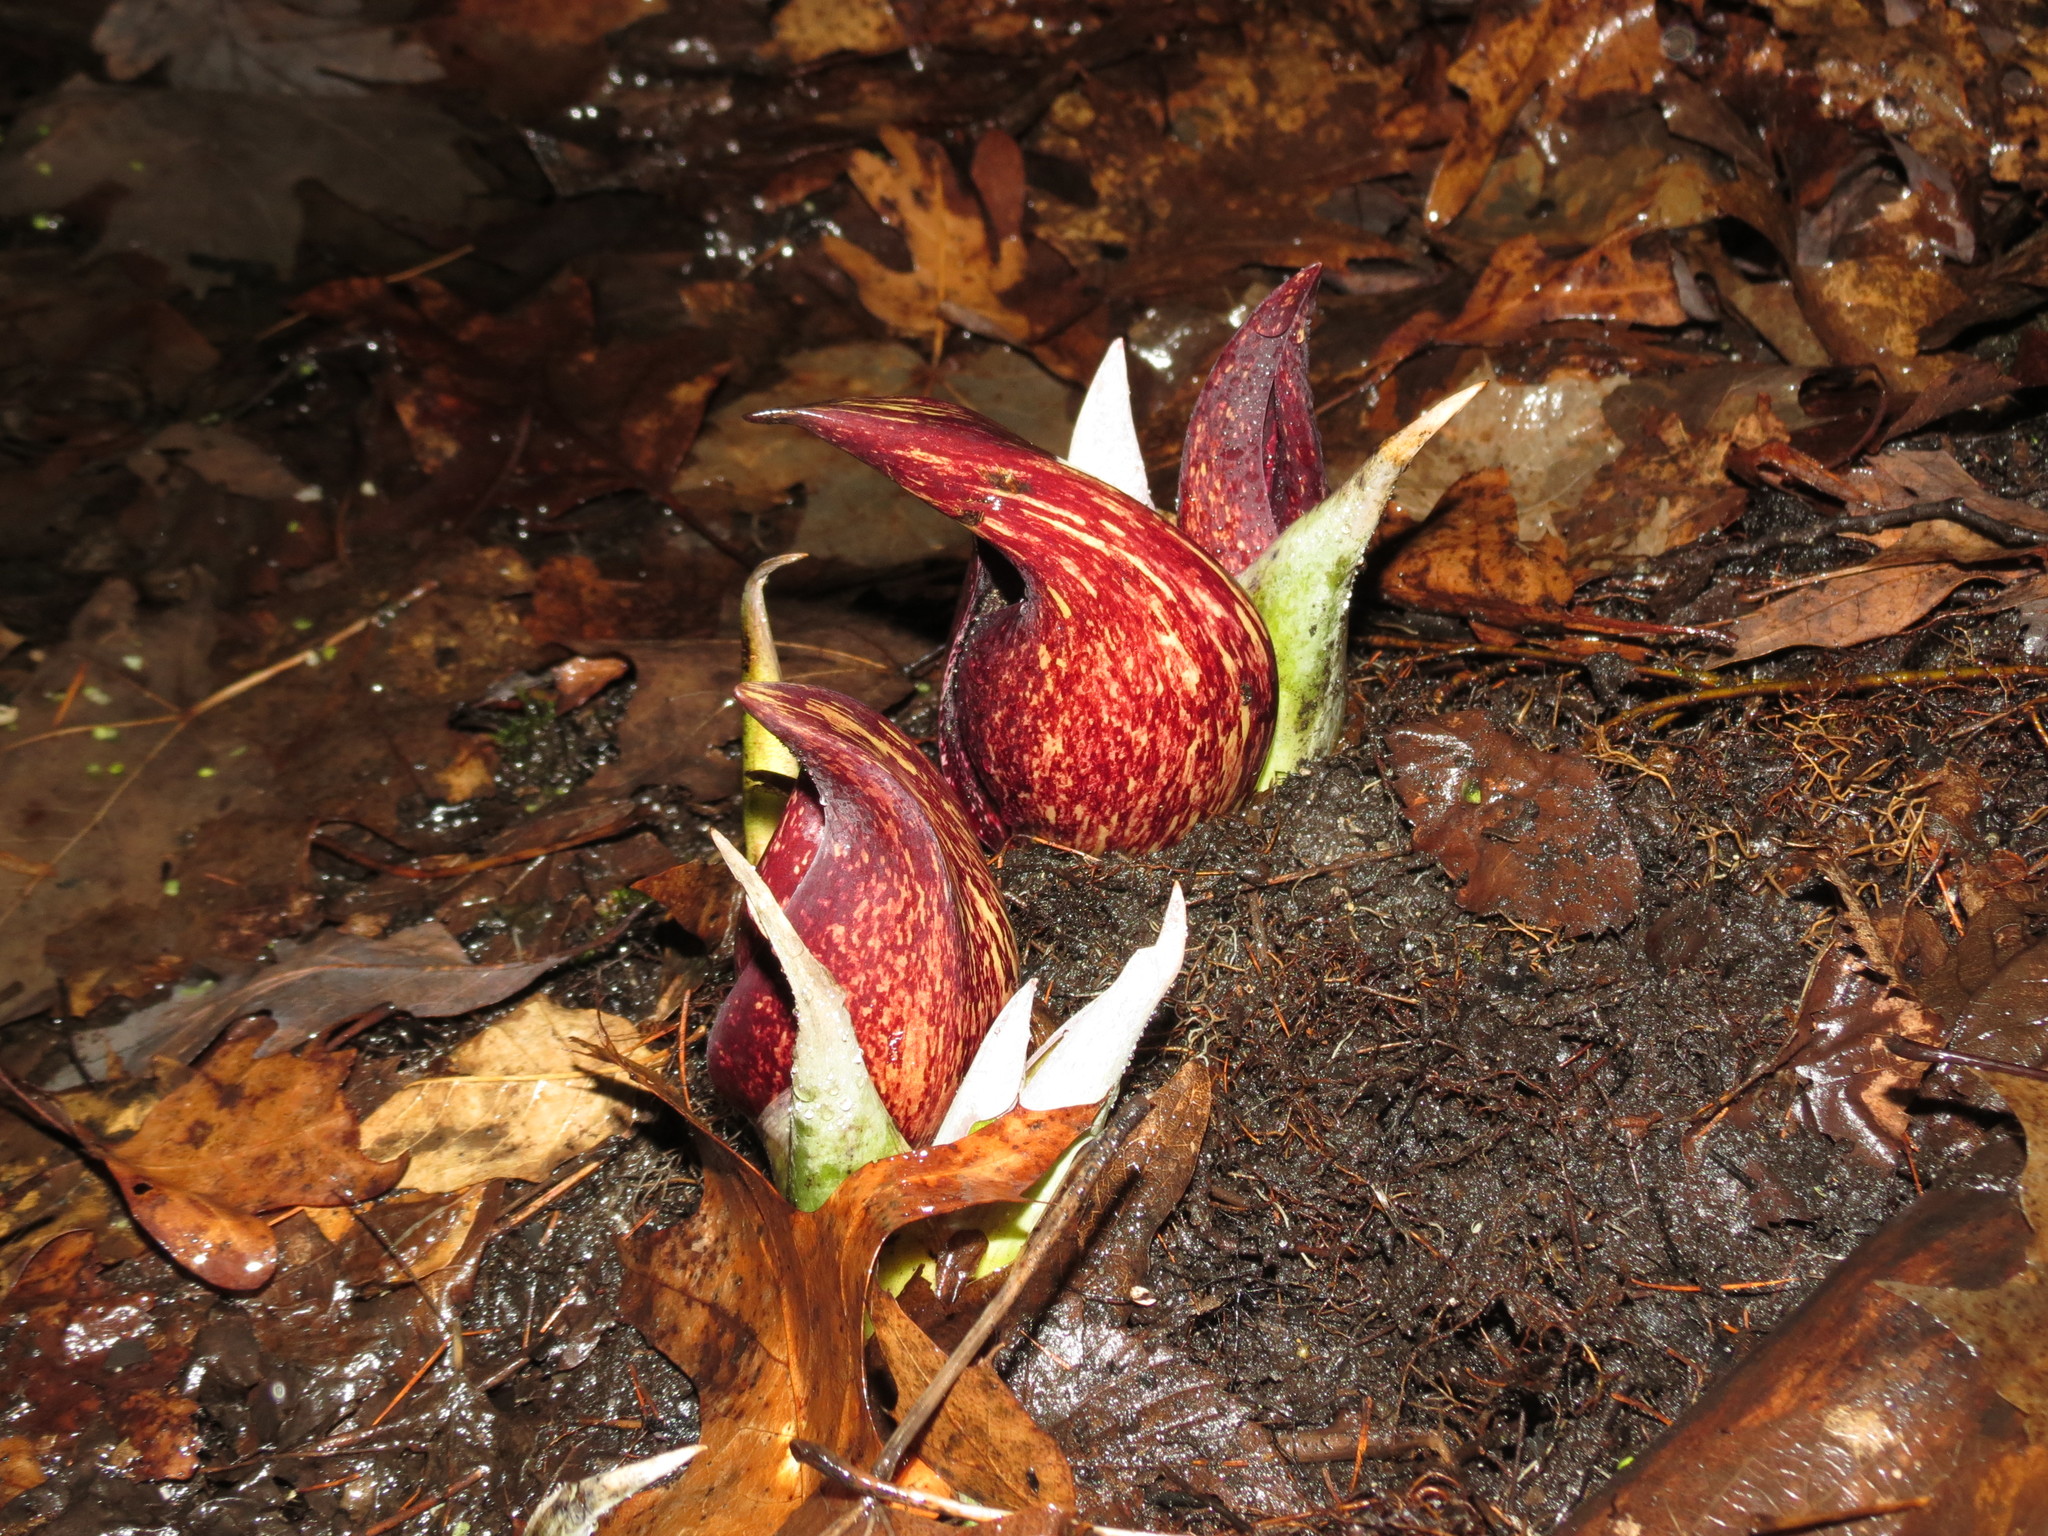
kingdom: Plantae
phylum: Tracheophyta
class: Liliopsida
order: Alismatales
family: Araceae
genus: Symplocarpus
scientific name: Symplocarpus foetidus
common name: Eastern skunk cabbage
